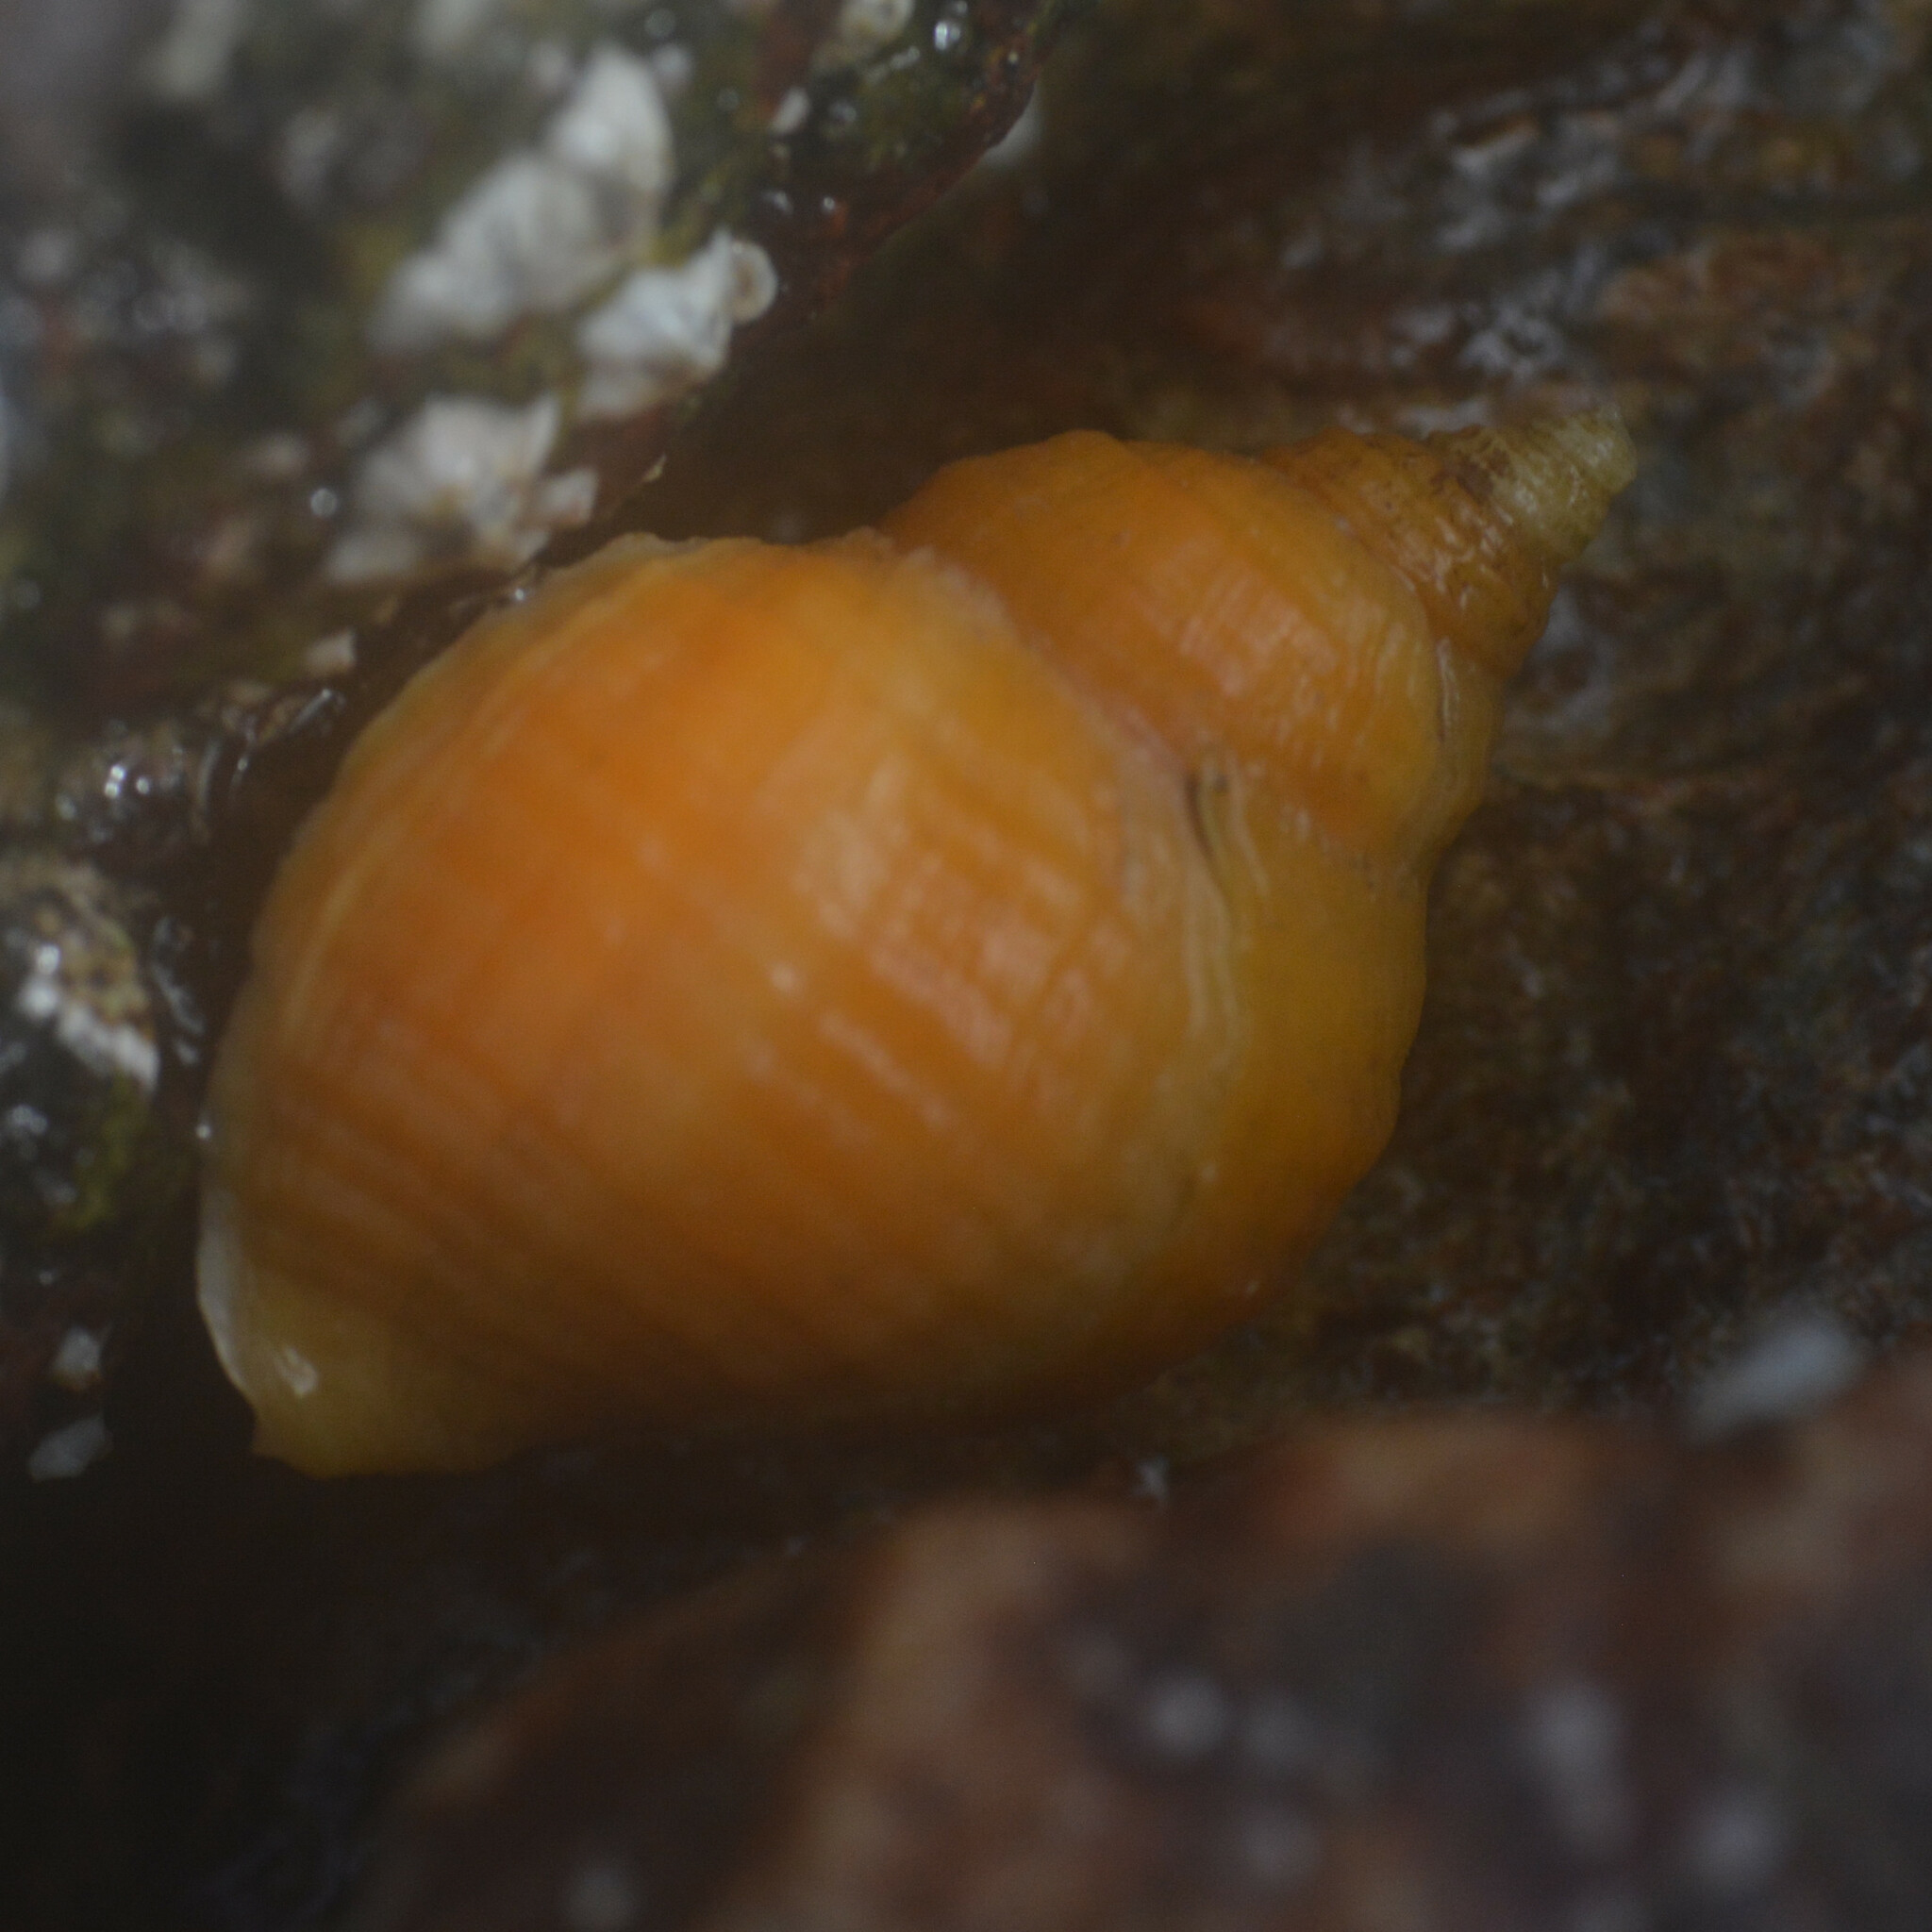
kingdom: Animalia
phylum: Mollusca
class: Gastropoda
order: Neogastropoda
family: Muricidae
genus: Nucella
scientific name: Nucella lapillus
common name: Dog whelk
